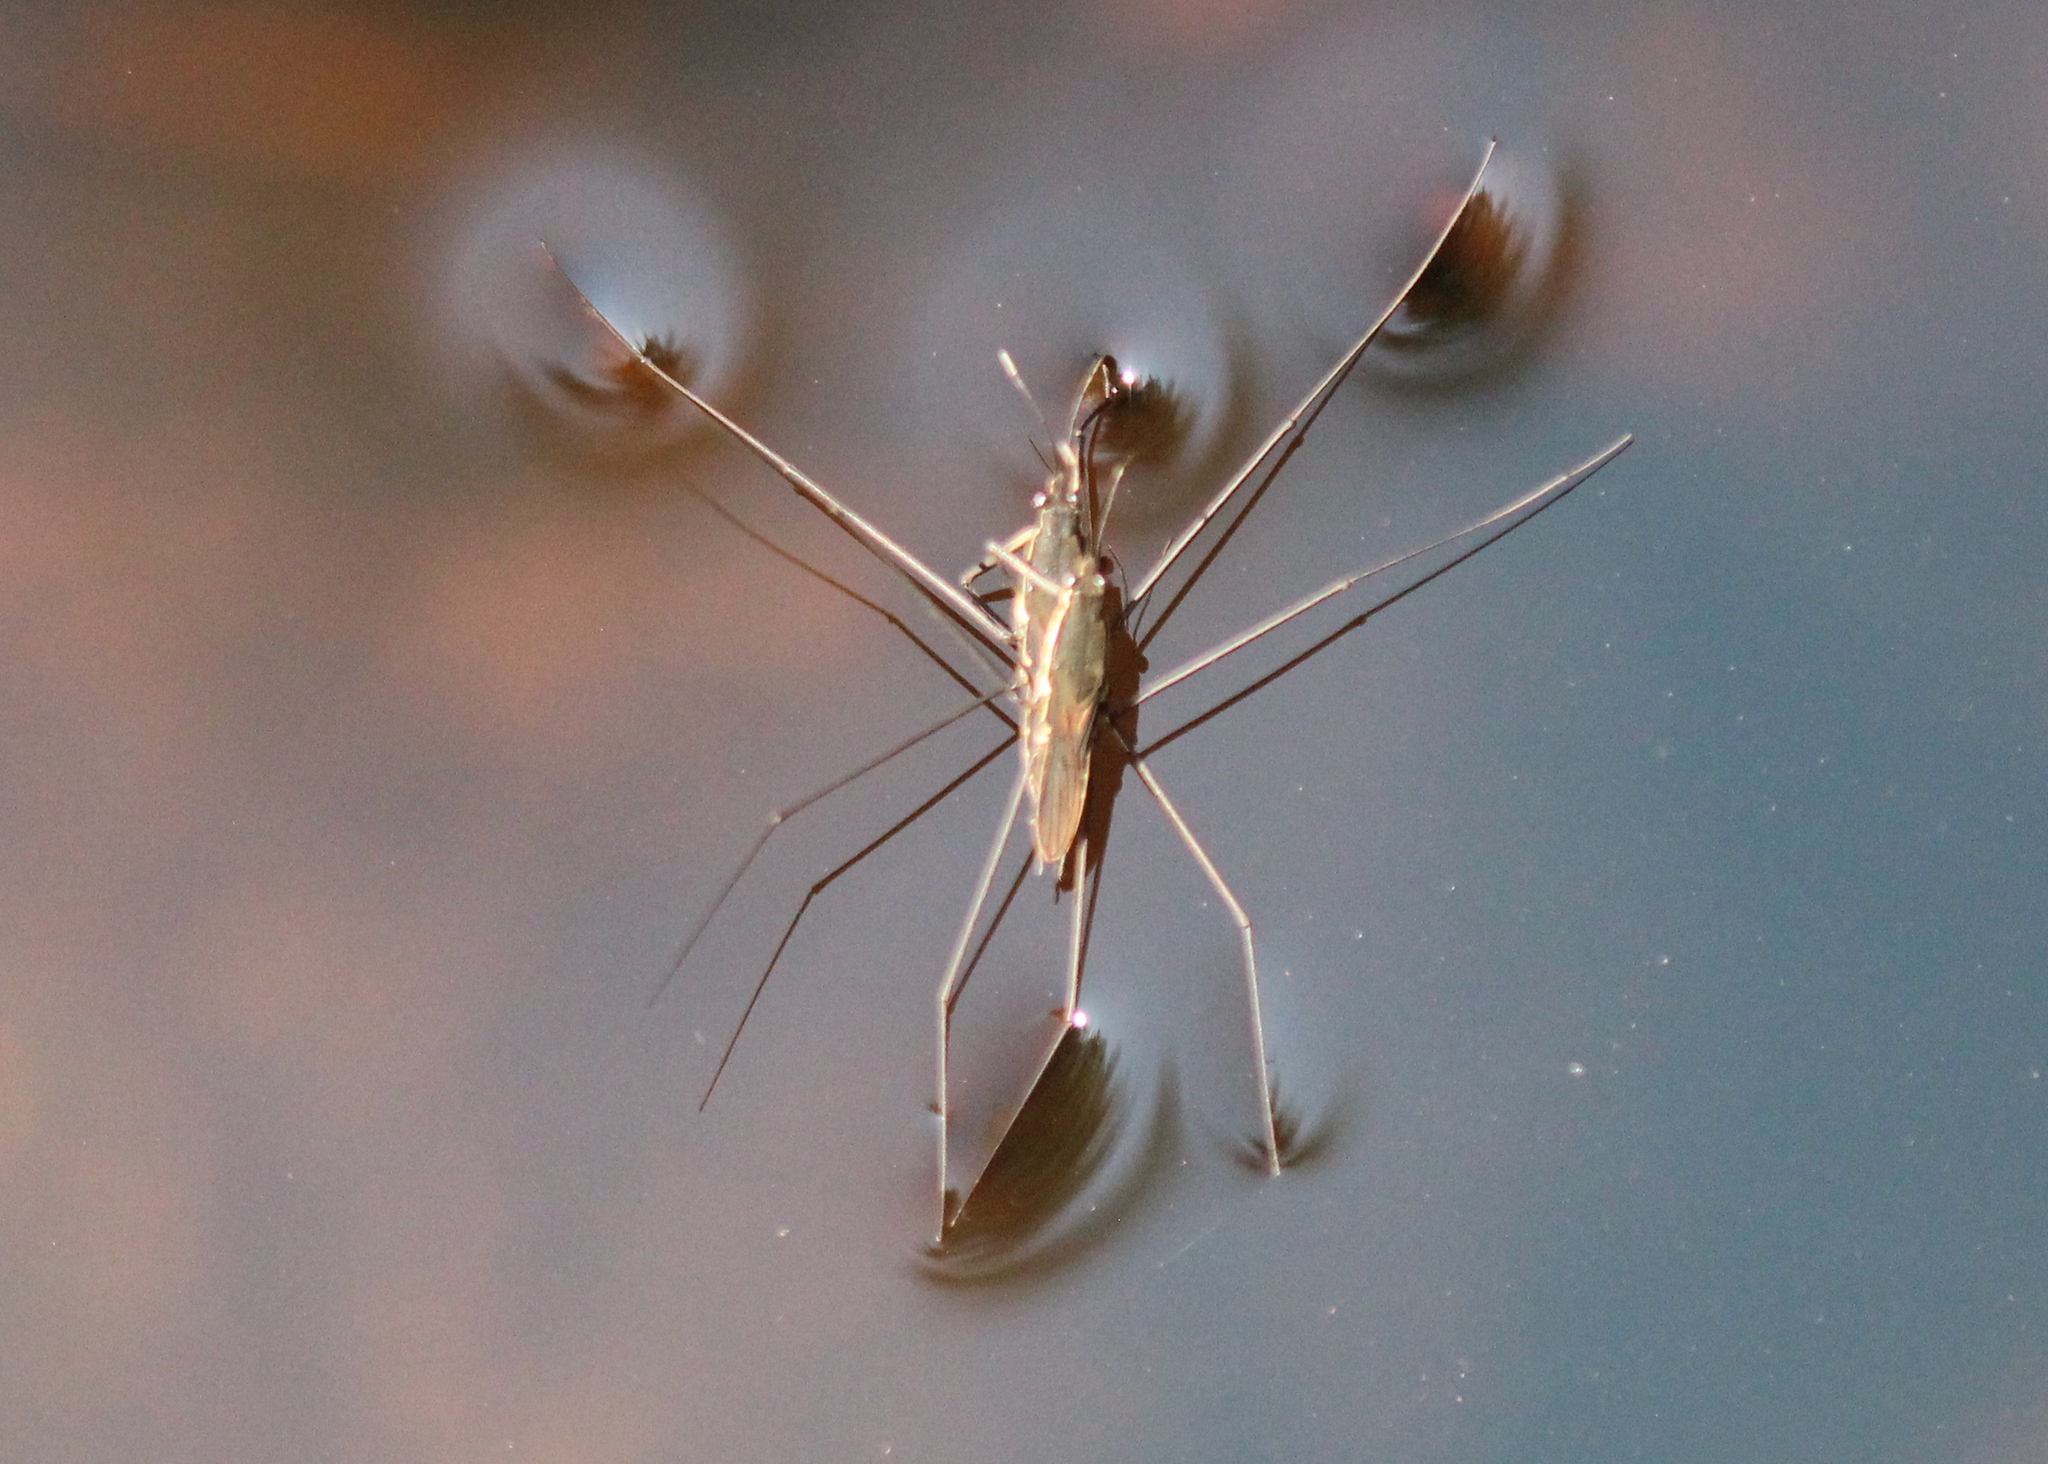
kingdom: Animalia
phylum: Arthropoda
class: Insecta
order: Hemiptera
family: Gerridae
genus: Aquarius
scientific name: Aquarius conformis
